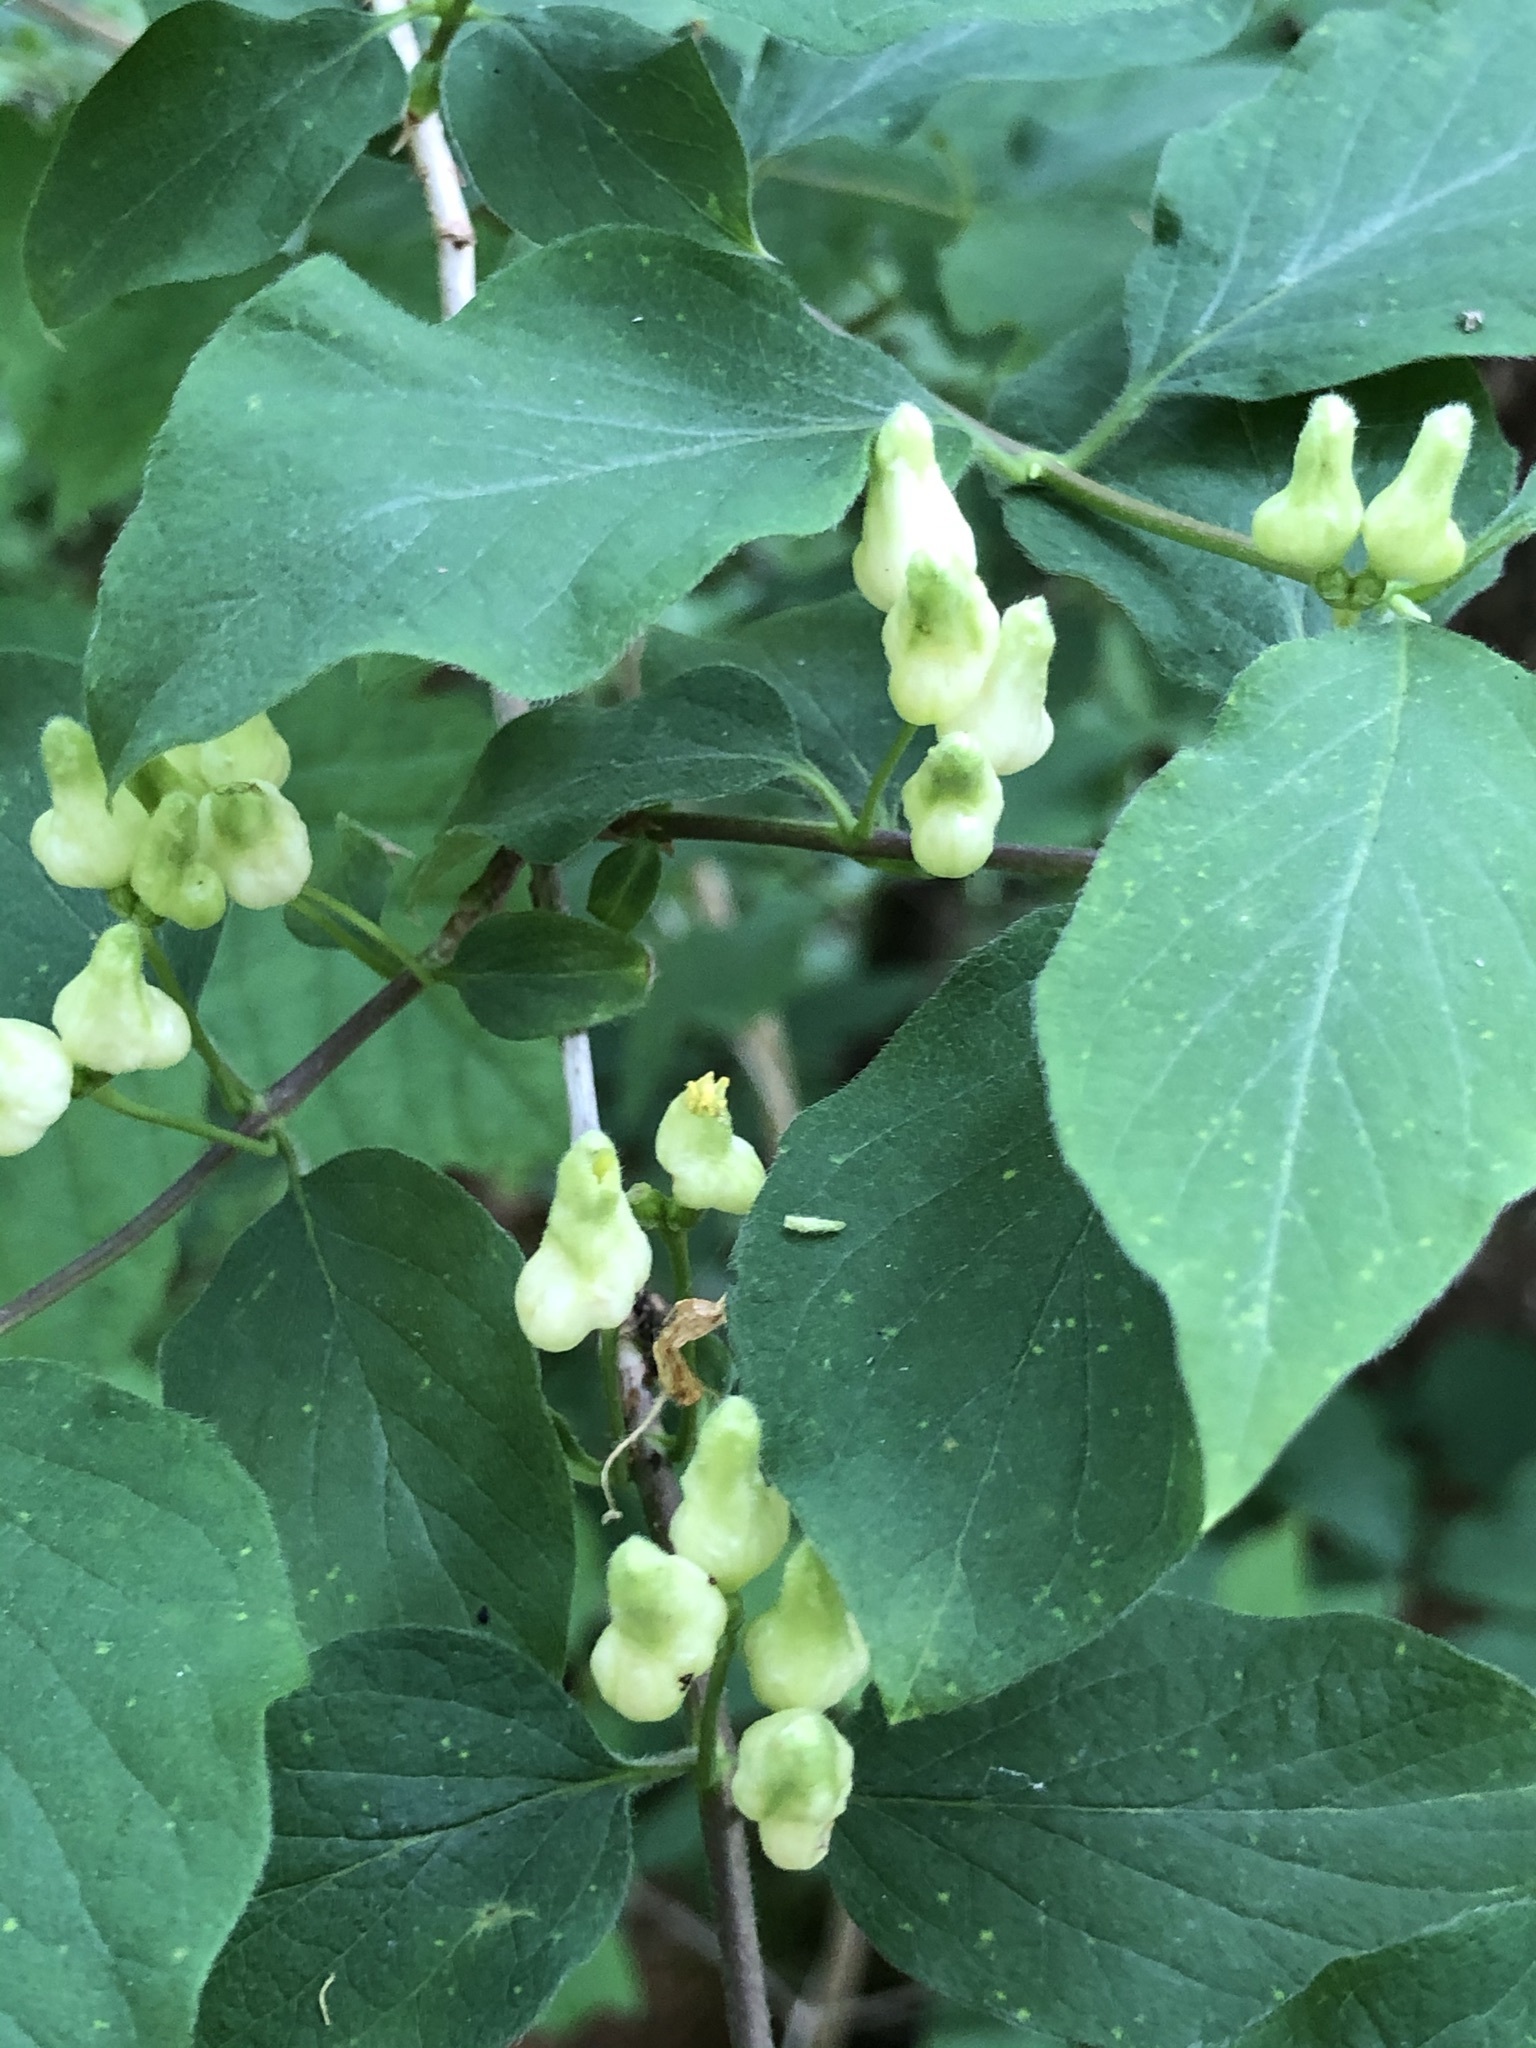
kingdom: Plantae
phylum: Tracheophyta
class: Magnoliopsida
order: Dipsacales
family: Caprifoliaceae
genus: Lonicera
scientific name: Lonicera xylosteum
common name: Fly honeysuckle
